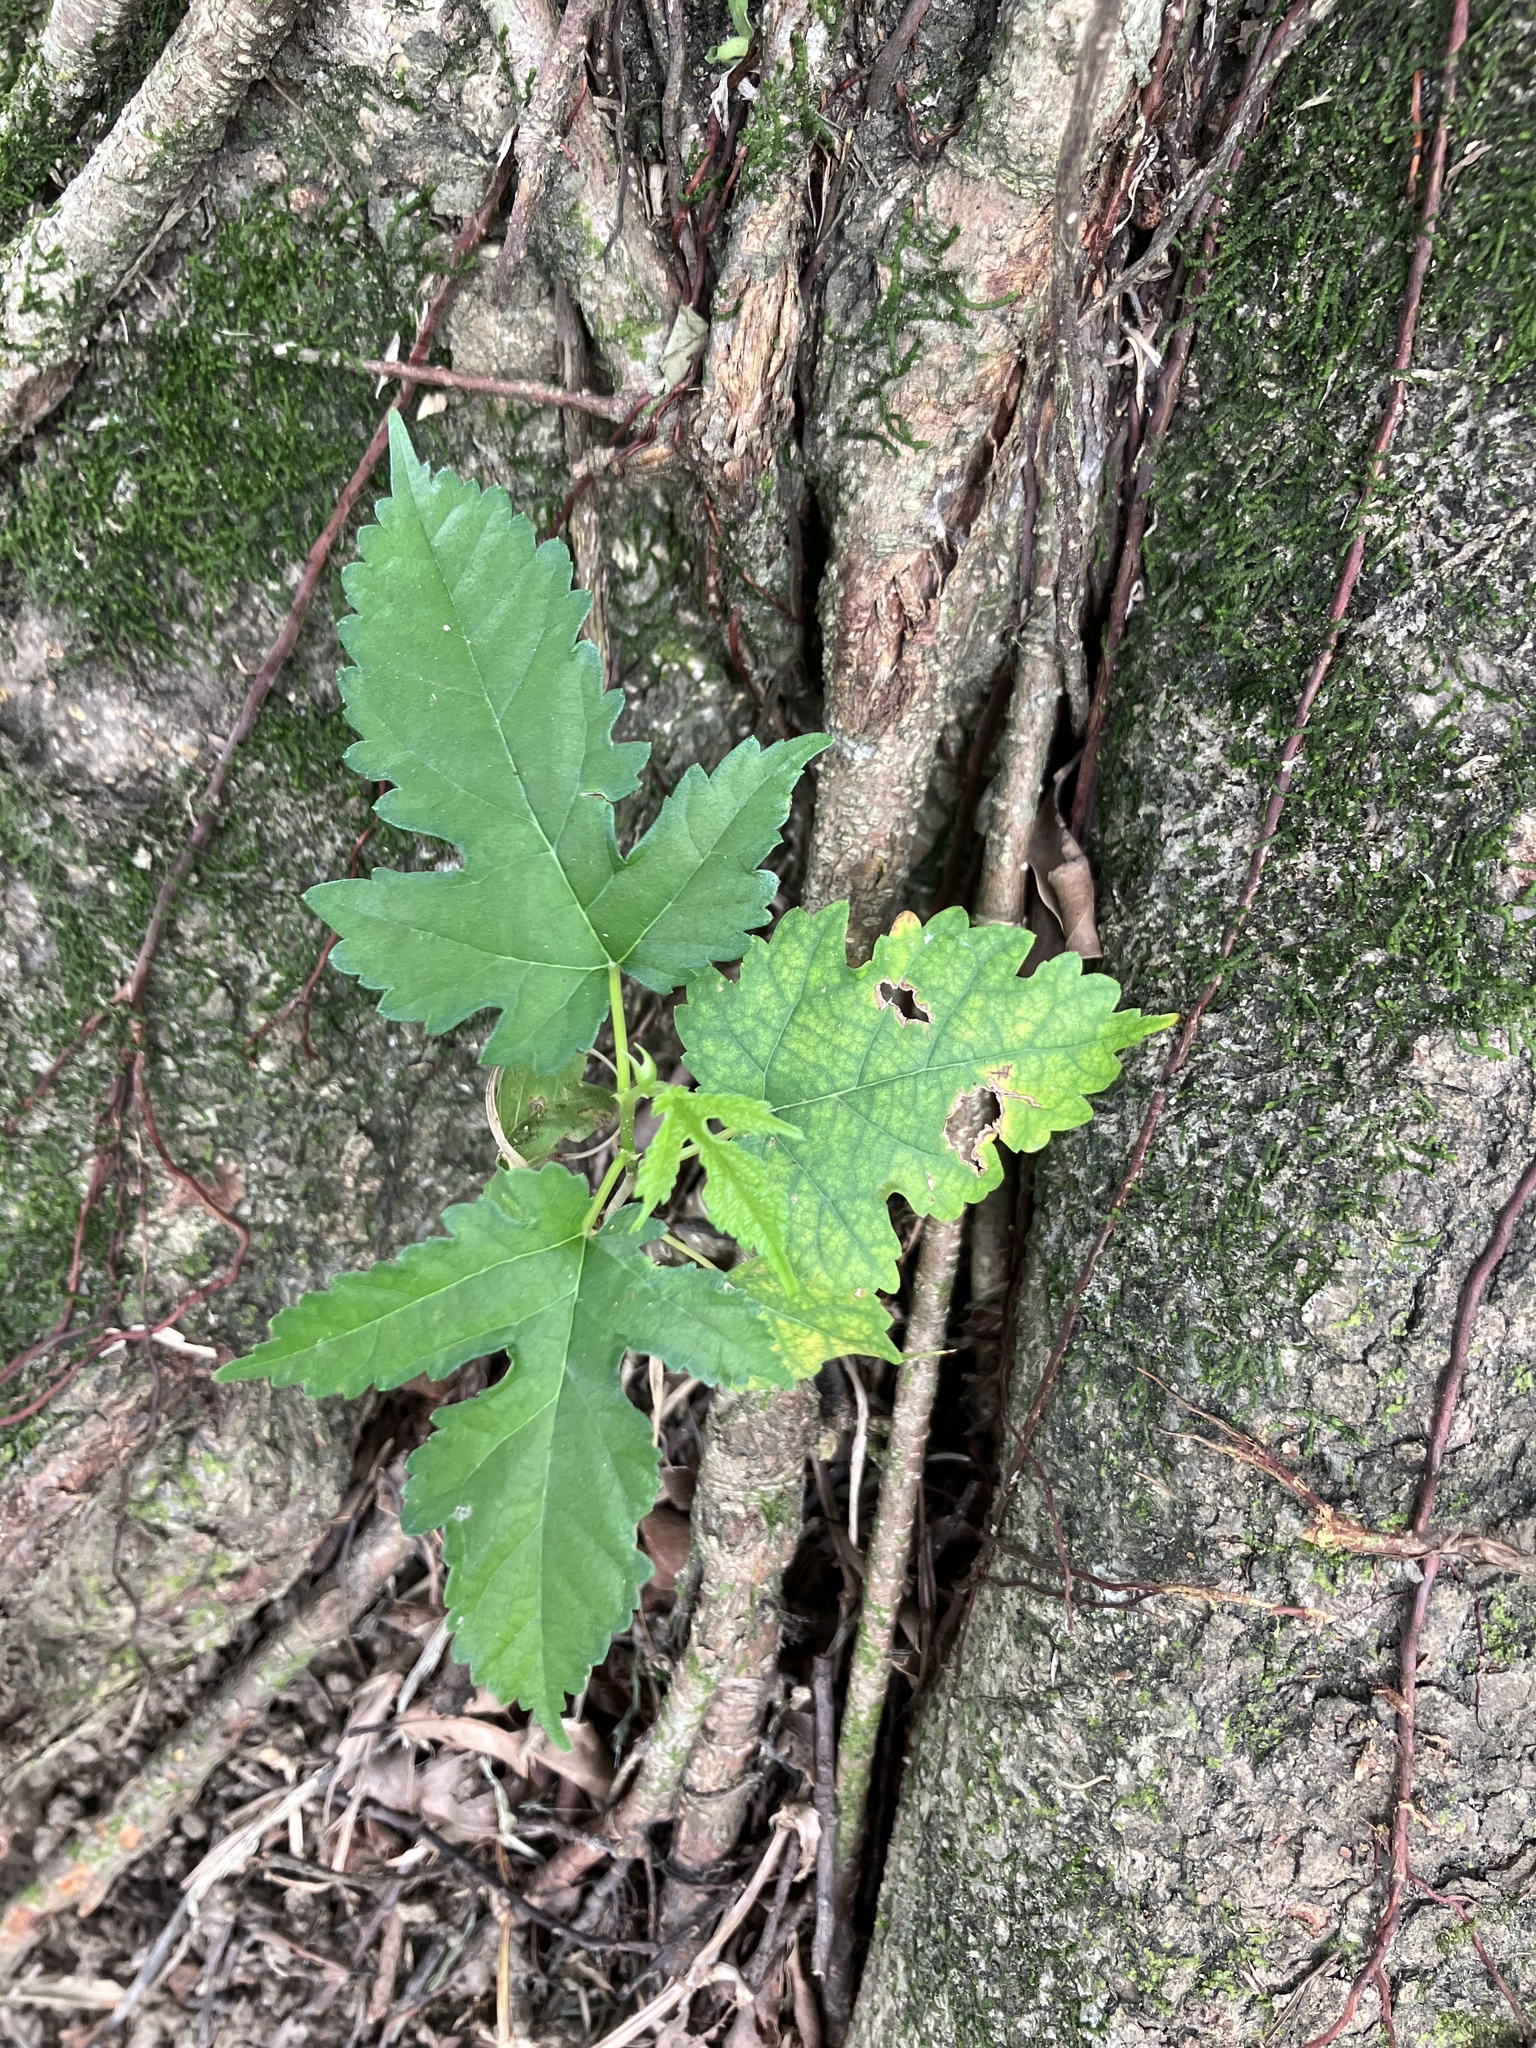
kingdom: Plantae
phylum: Tracheophyta
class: Magnoliopsida
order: Rosales
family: Moraceae
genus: Morus
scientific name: Morus indica
